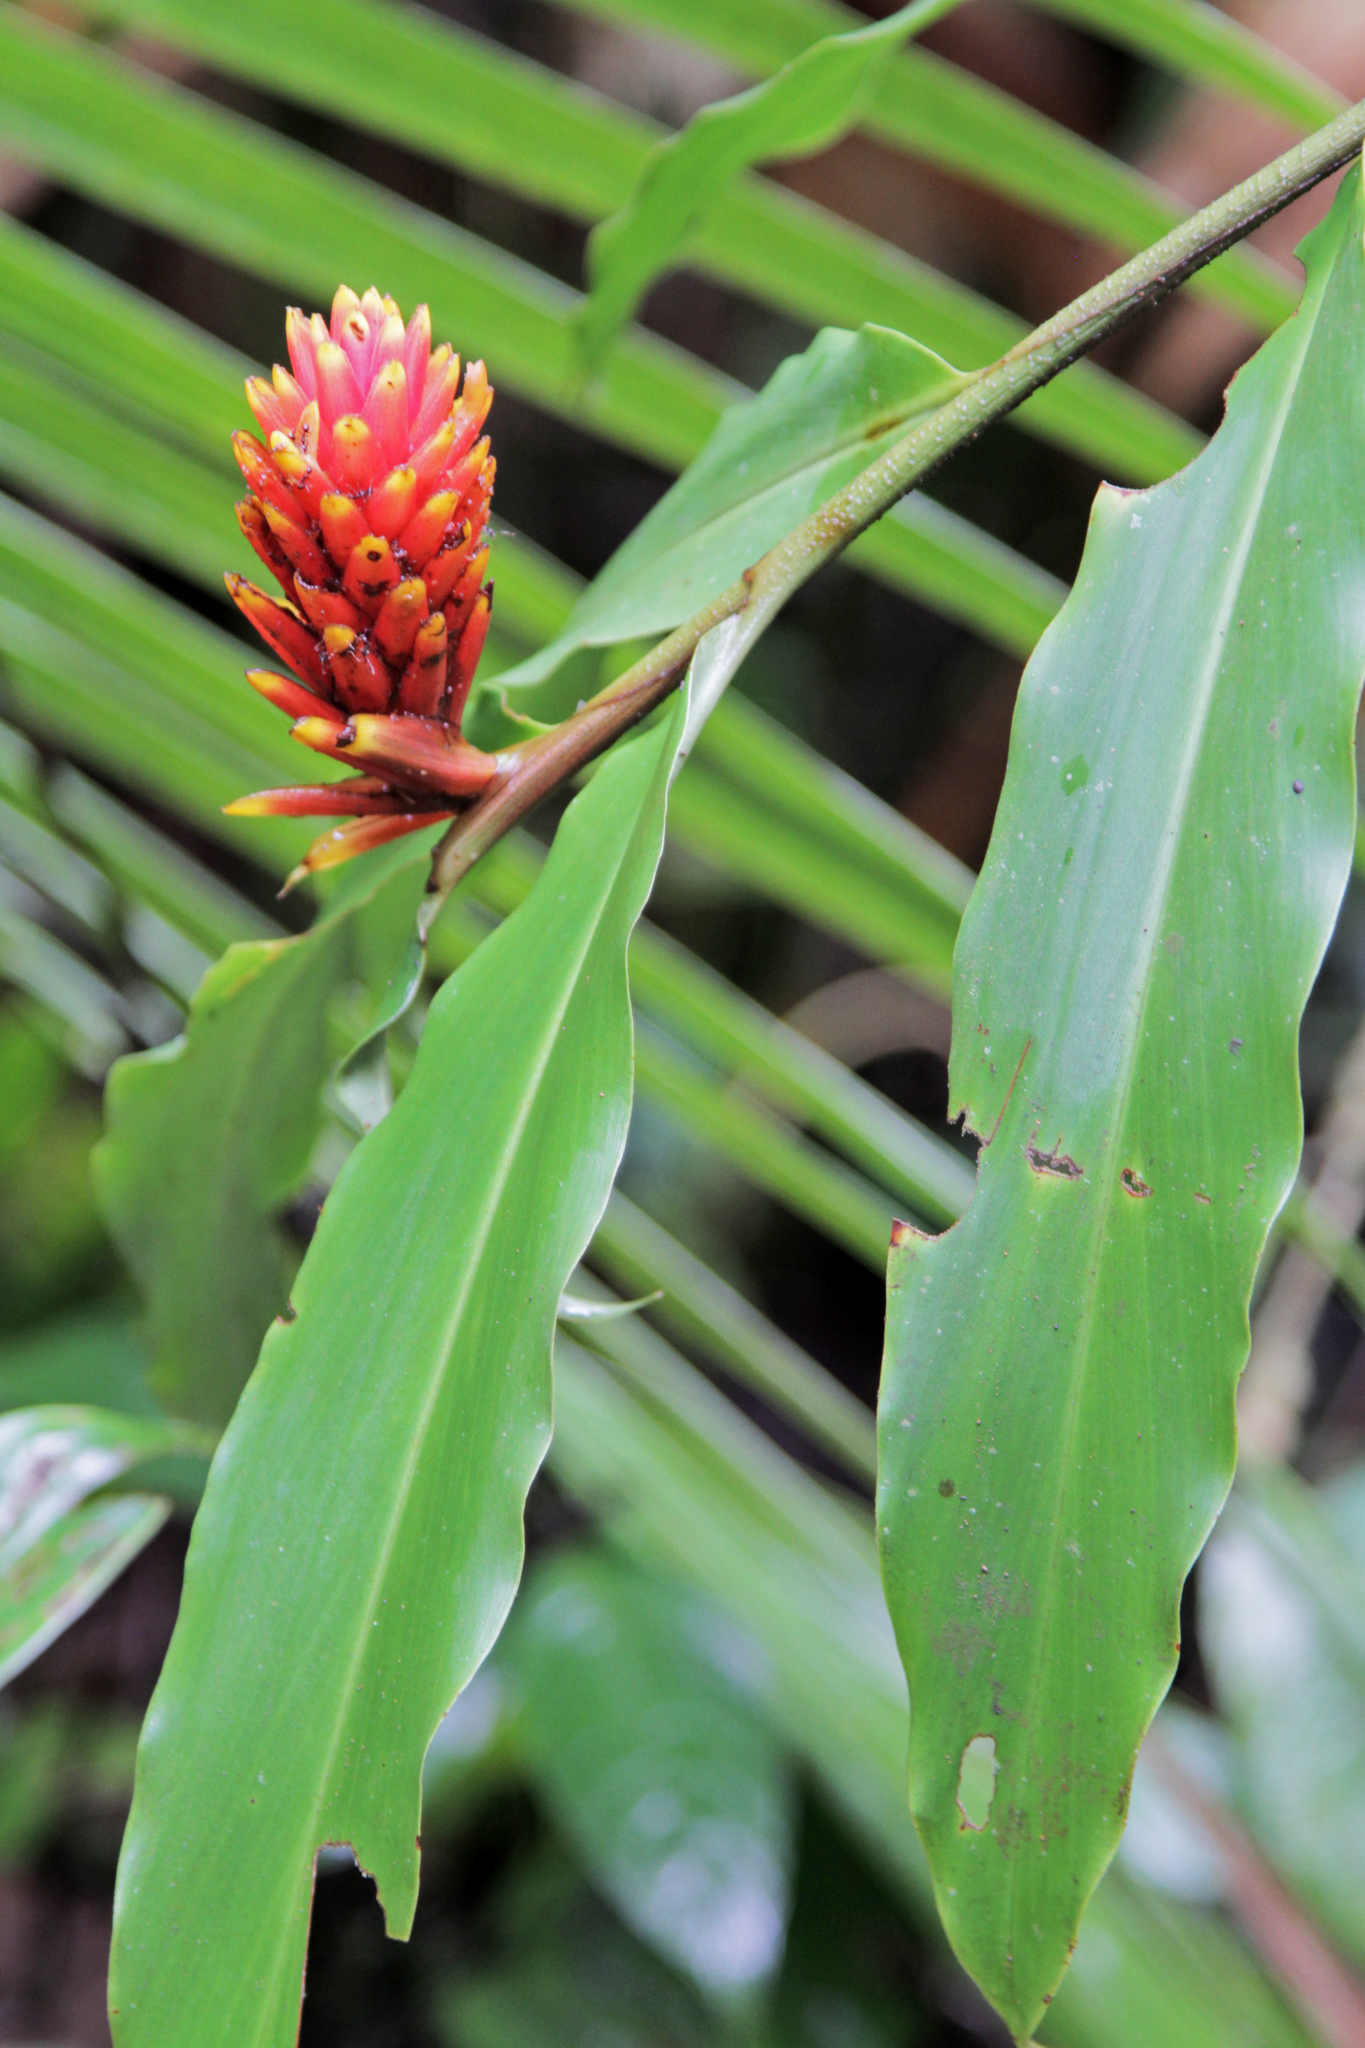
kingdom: Plantae
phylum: Tracheophyta
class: Liliopsida
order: Zingiberales
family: Zingiberaceae
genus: Renealmia
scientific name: Renealmia cernua
